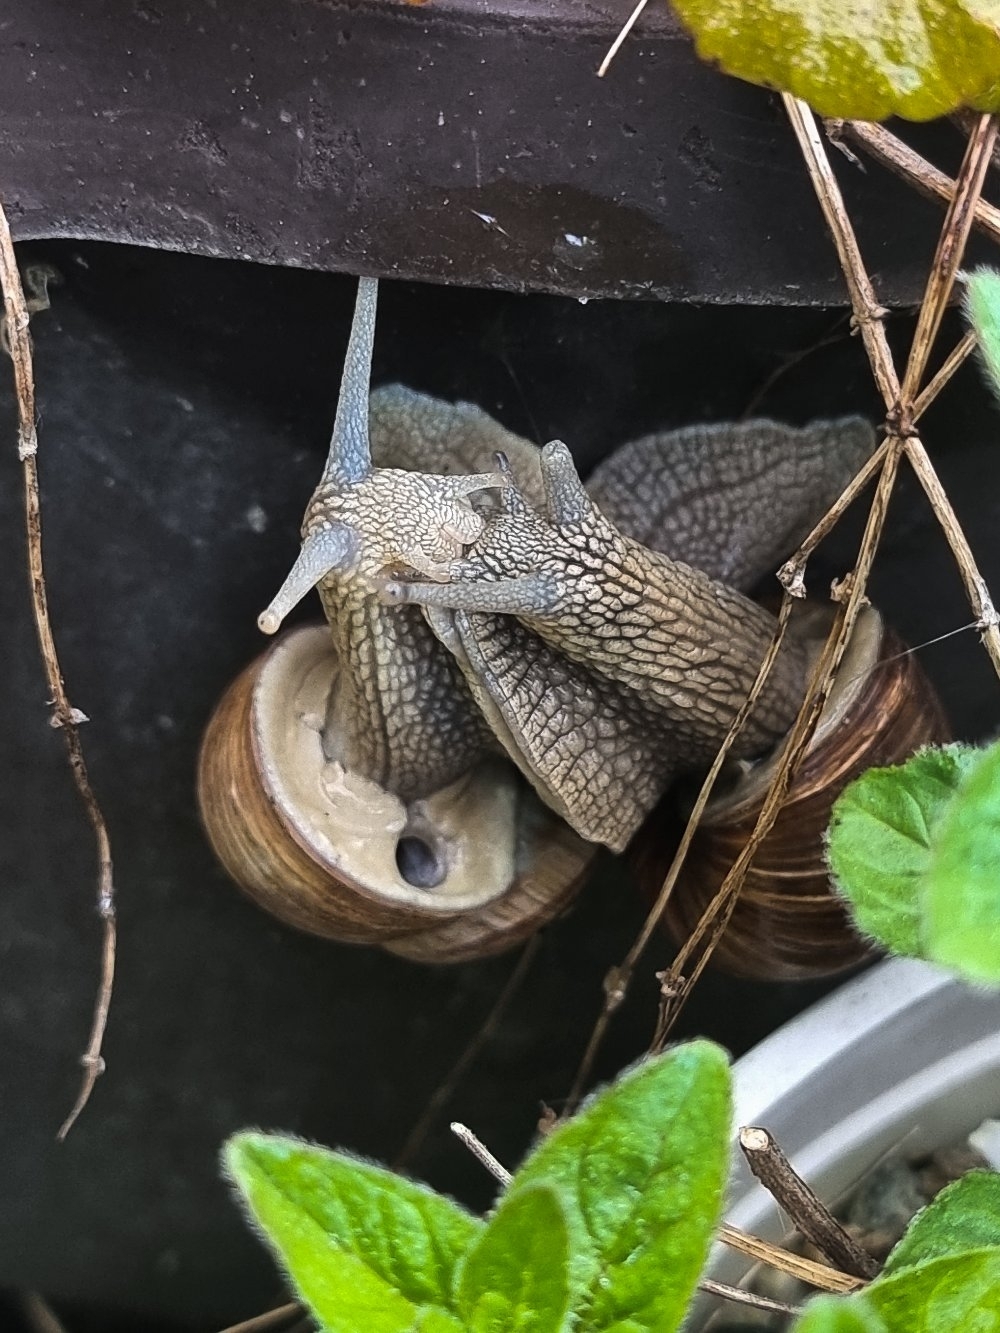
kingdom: Animalia
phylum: Mollusca
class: Gastropoda
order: Stylommatophora
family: Helicidae
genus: Helix
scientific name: Helix pomatia
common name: Roman snail
